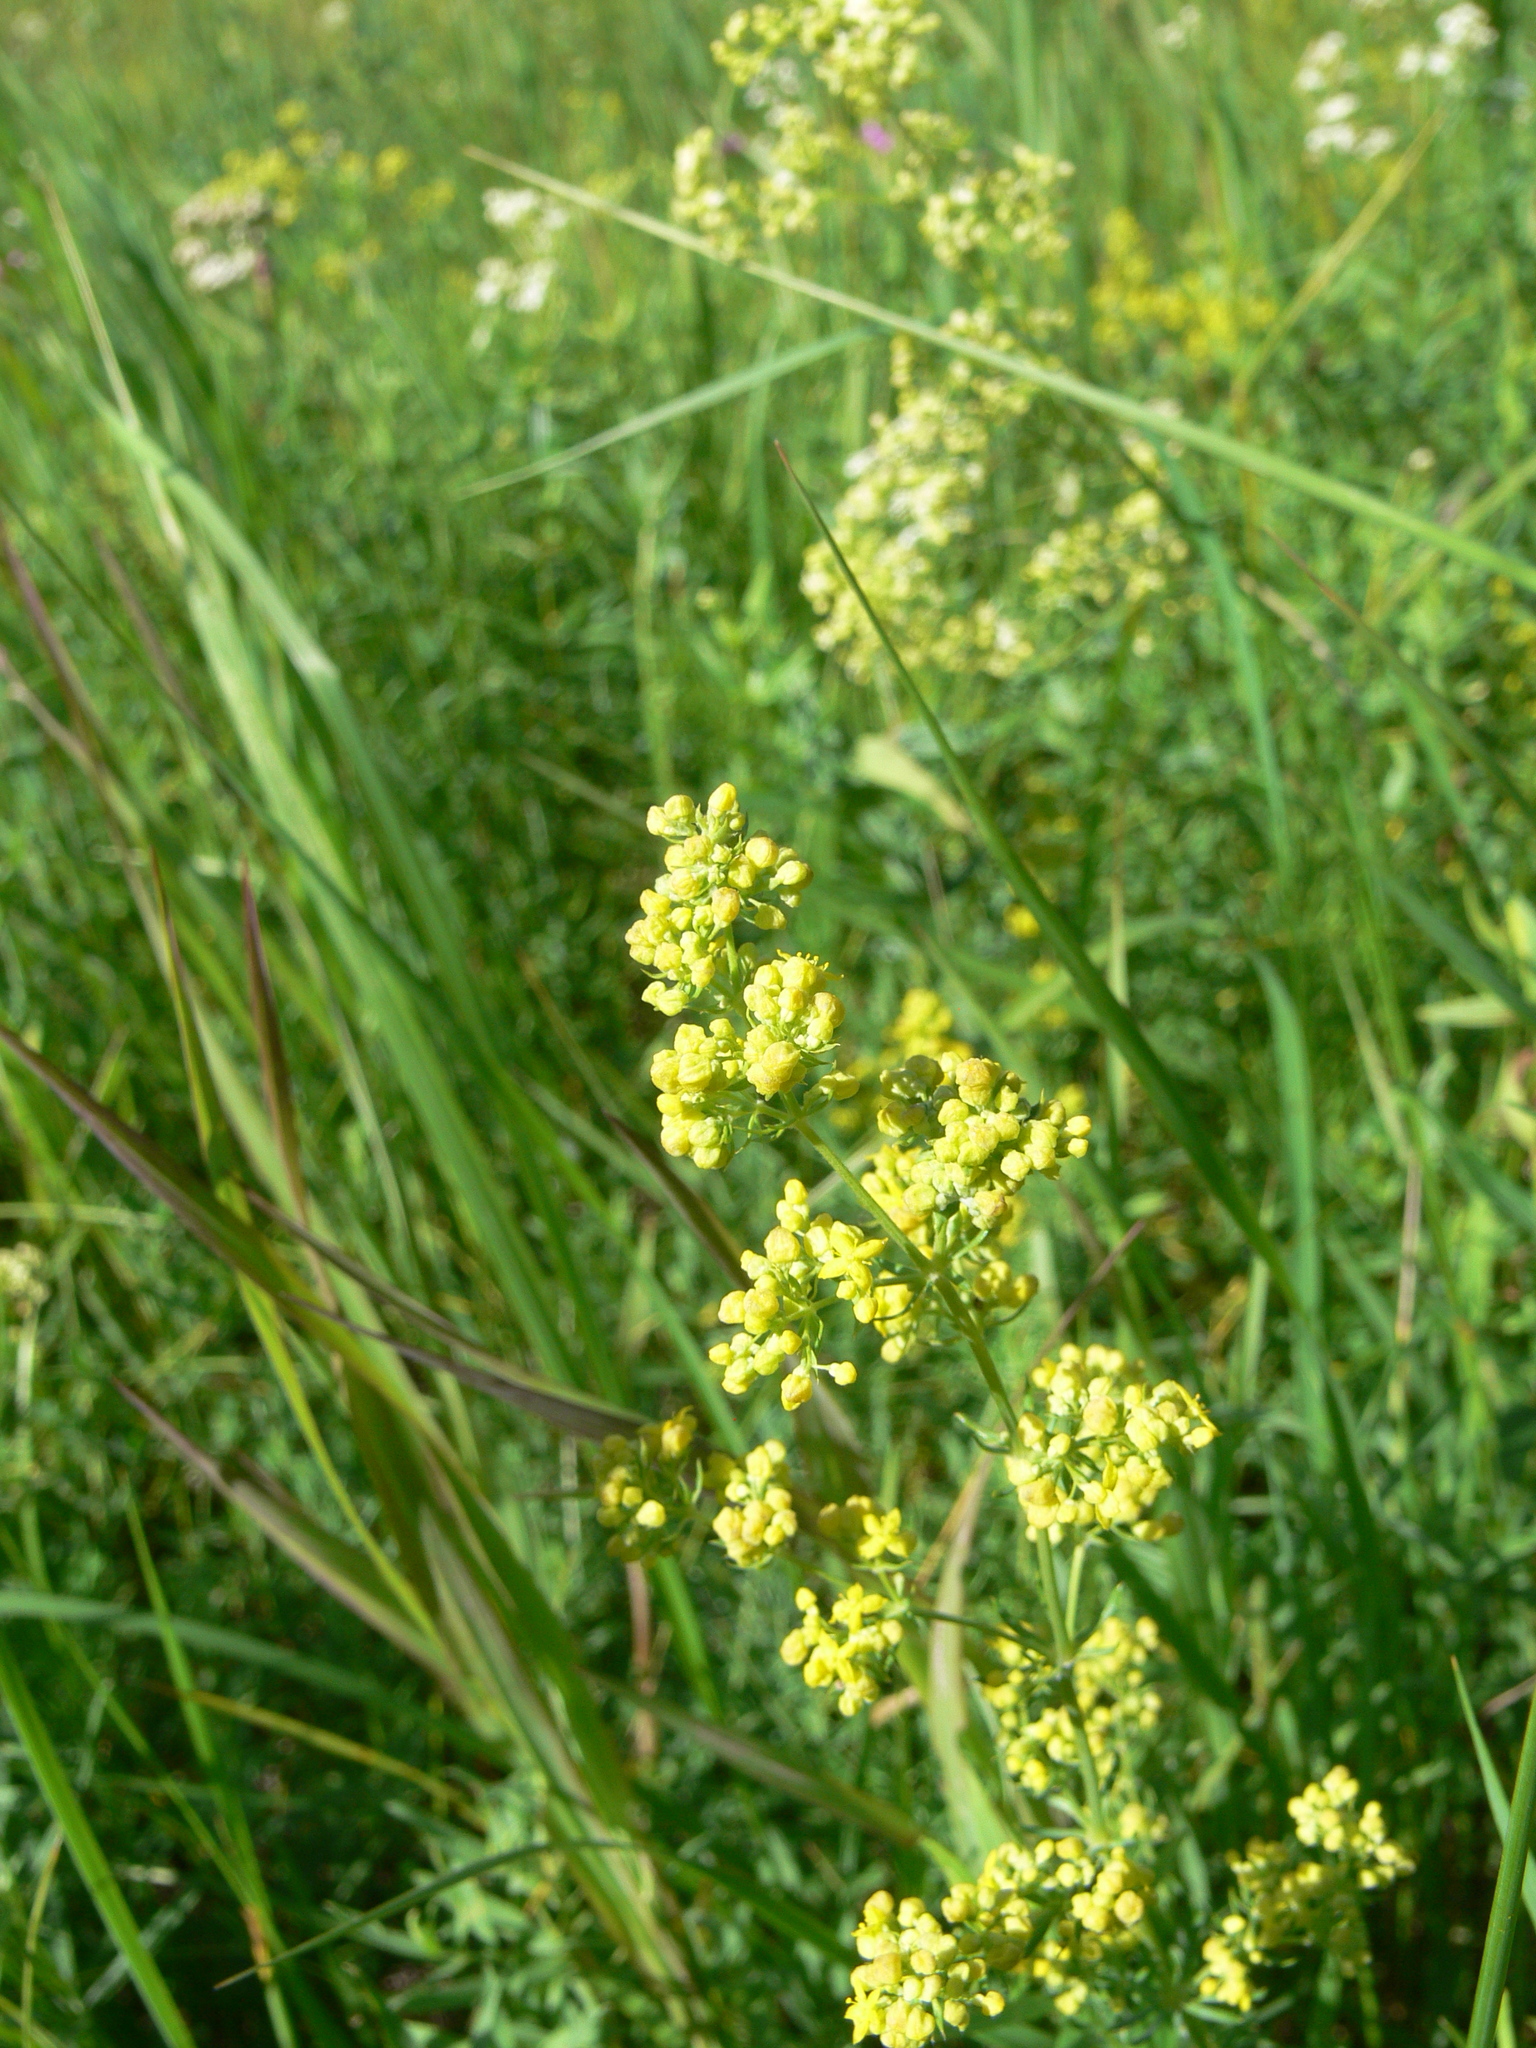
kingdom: Plantae
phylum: Tracheophyta
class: Magnoliopsida
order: Gentianales
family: Rubiaceae
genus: Galium
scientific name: Galium verum
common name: Lady's bedstraw
